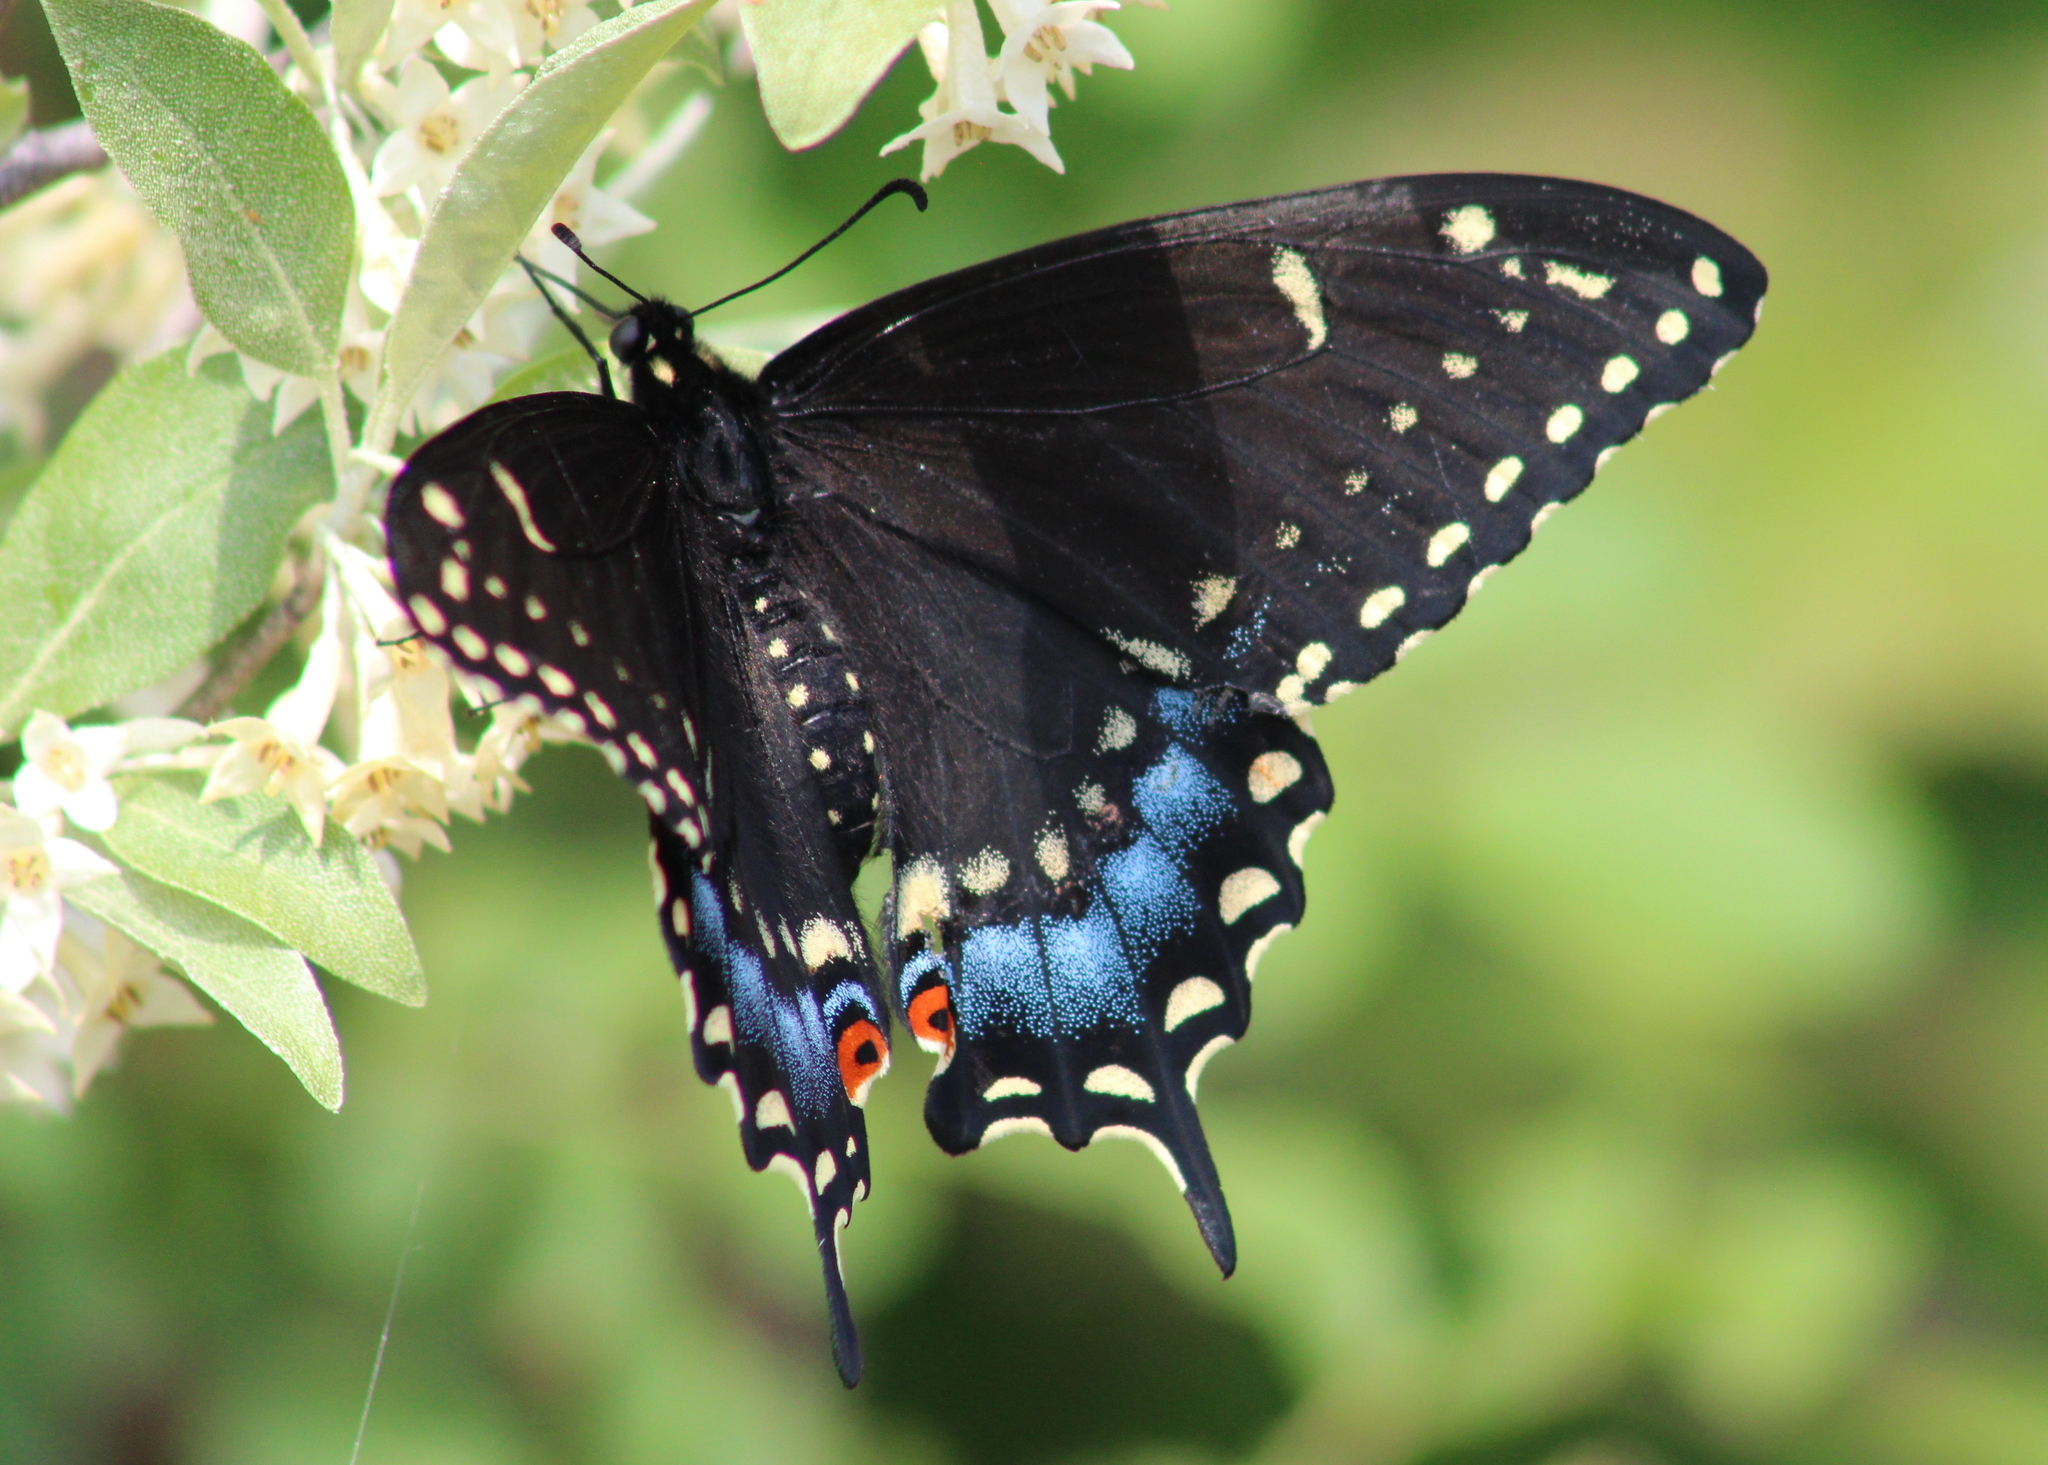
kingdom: Animalia
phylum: Arthropoda
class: Insecta
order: Lepidoptera
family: Papilionidae
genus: Papilio
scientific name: Papilio polyxenes
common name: Black swallowtail
